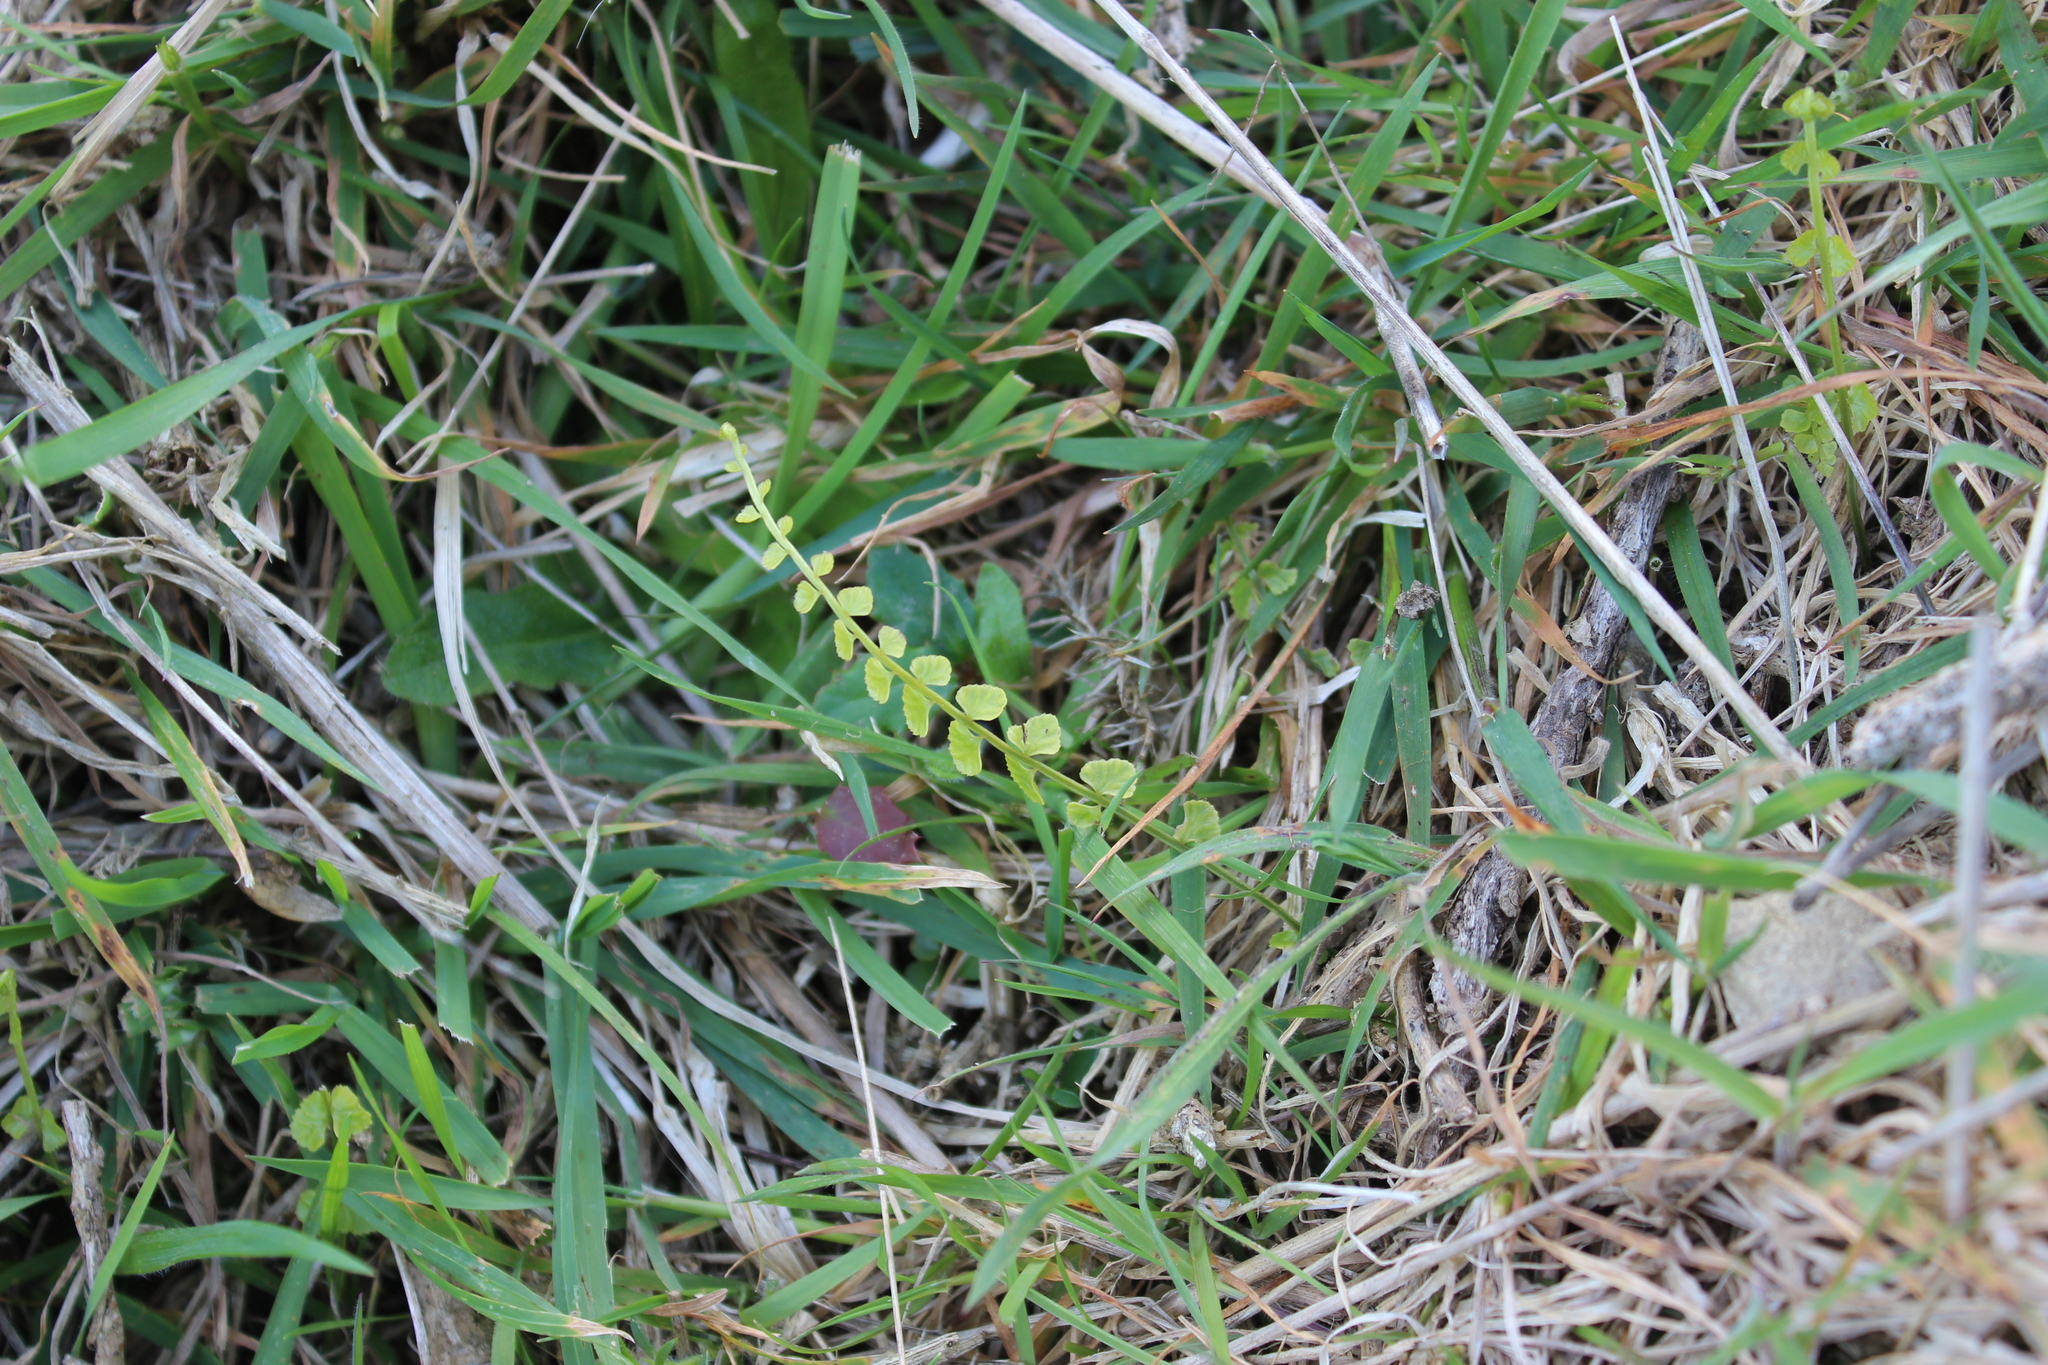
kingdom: Plantae
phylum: Tracheophyta
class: Polypodiopsida
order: Polypodiales
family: Aspleniaceae
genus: Asplenium
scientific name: Asplenium flabellifolium
